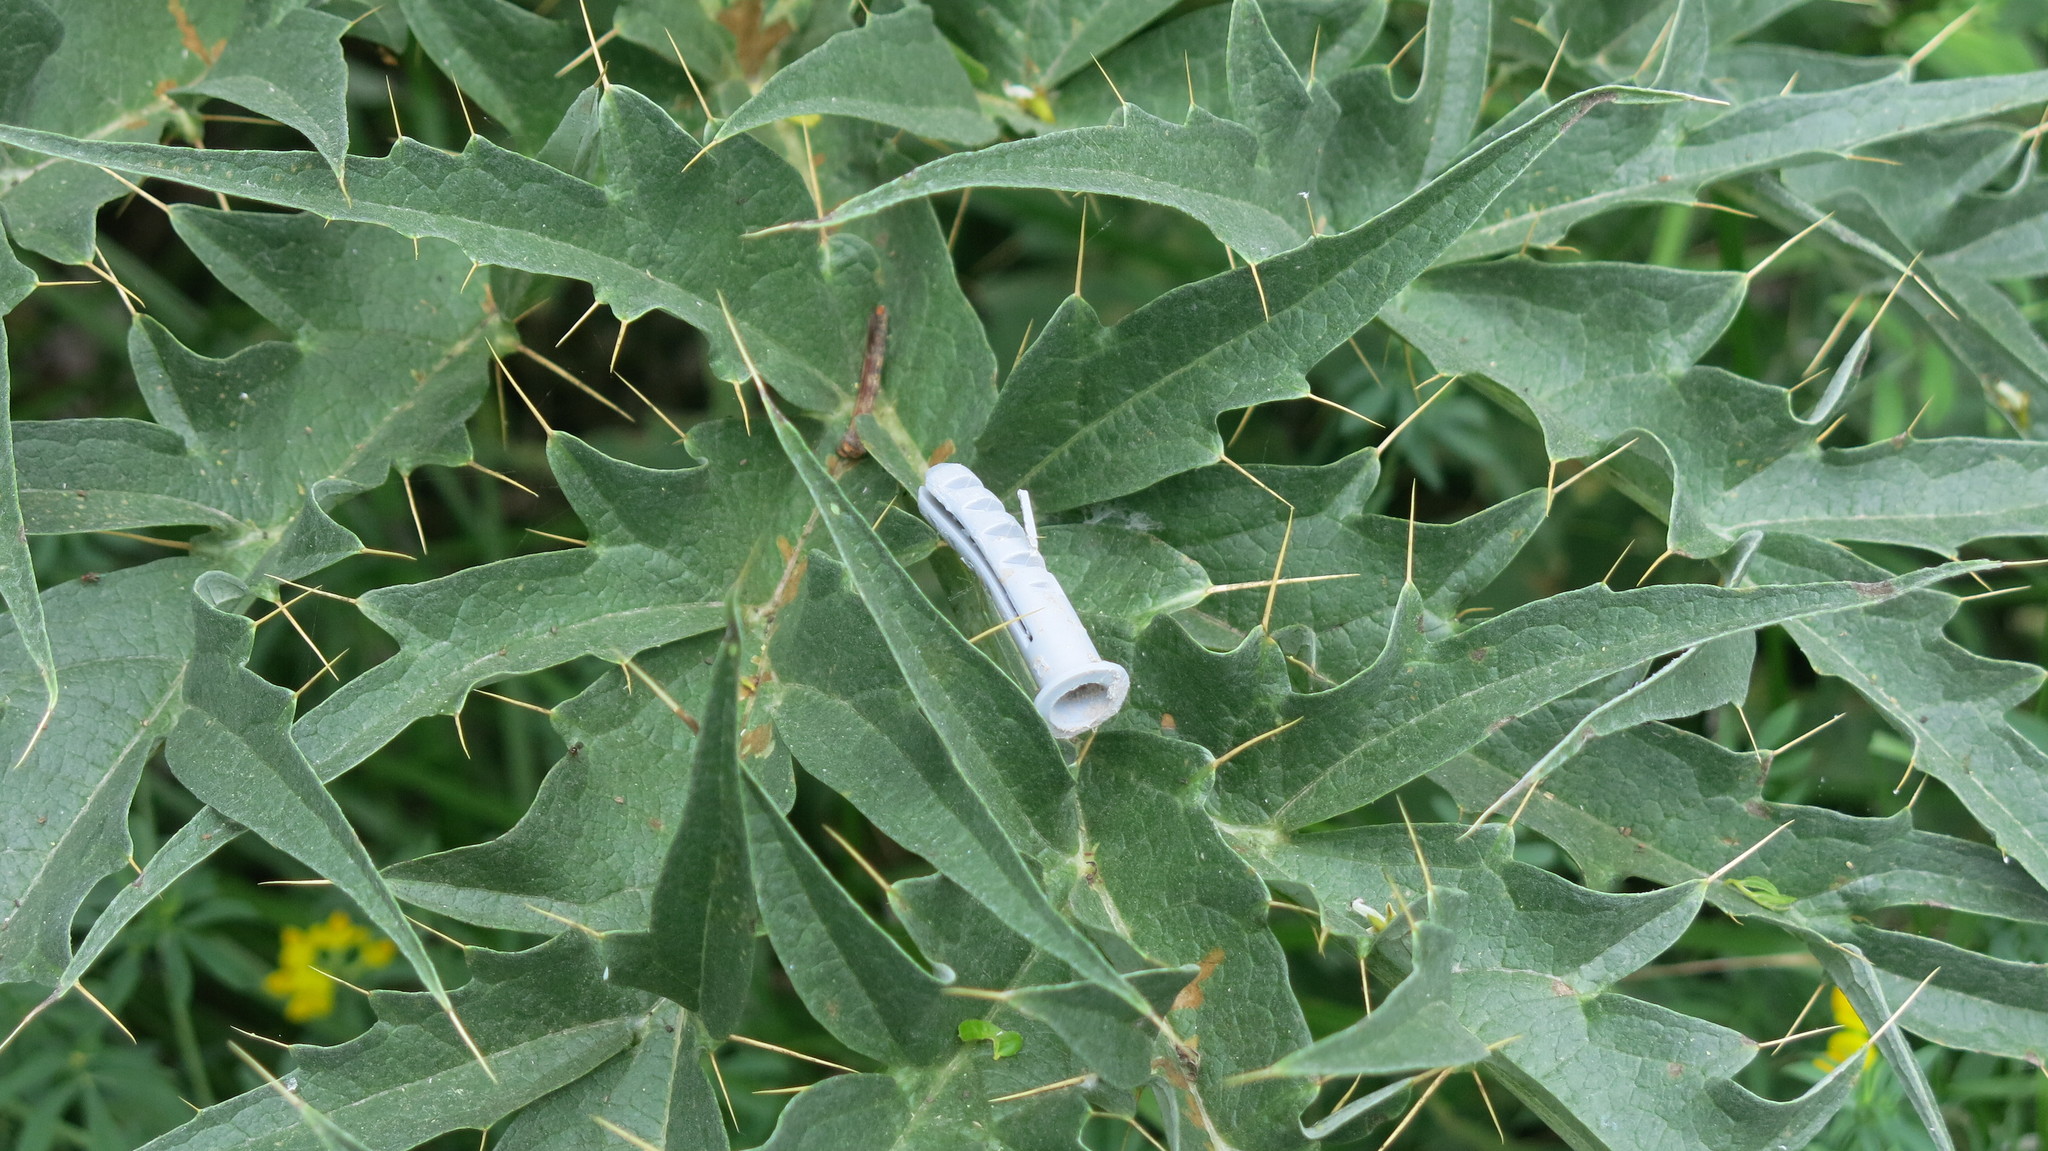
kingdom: Plantae
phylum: Tracheophyta
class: Magnoliopsida
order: Asterales
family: Asteraceae
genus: Cynara
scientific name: Cynara cardunculus
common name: Globe artichoke
